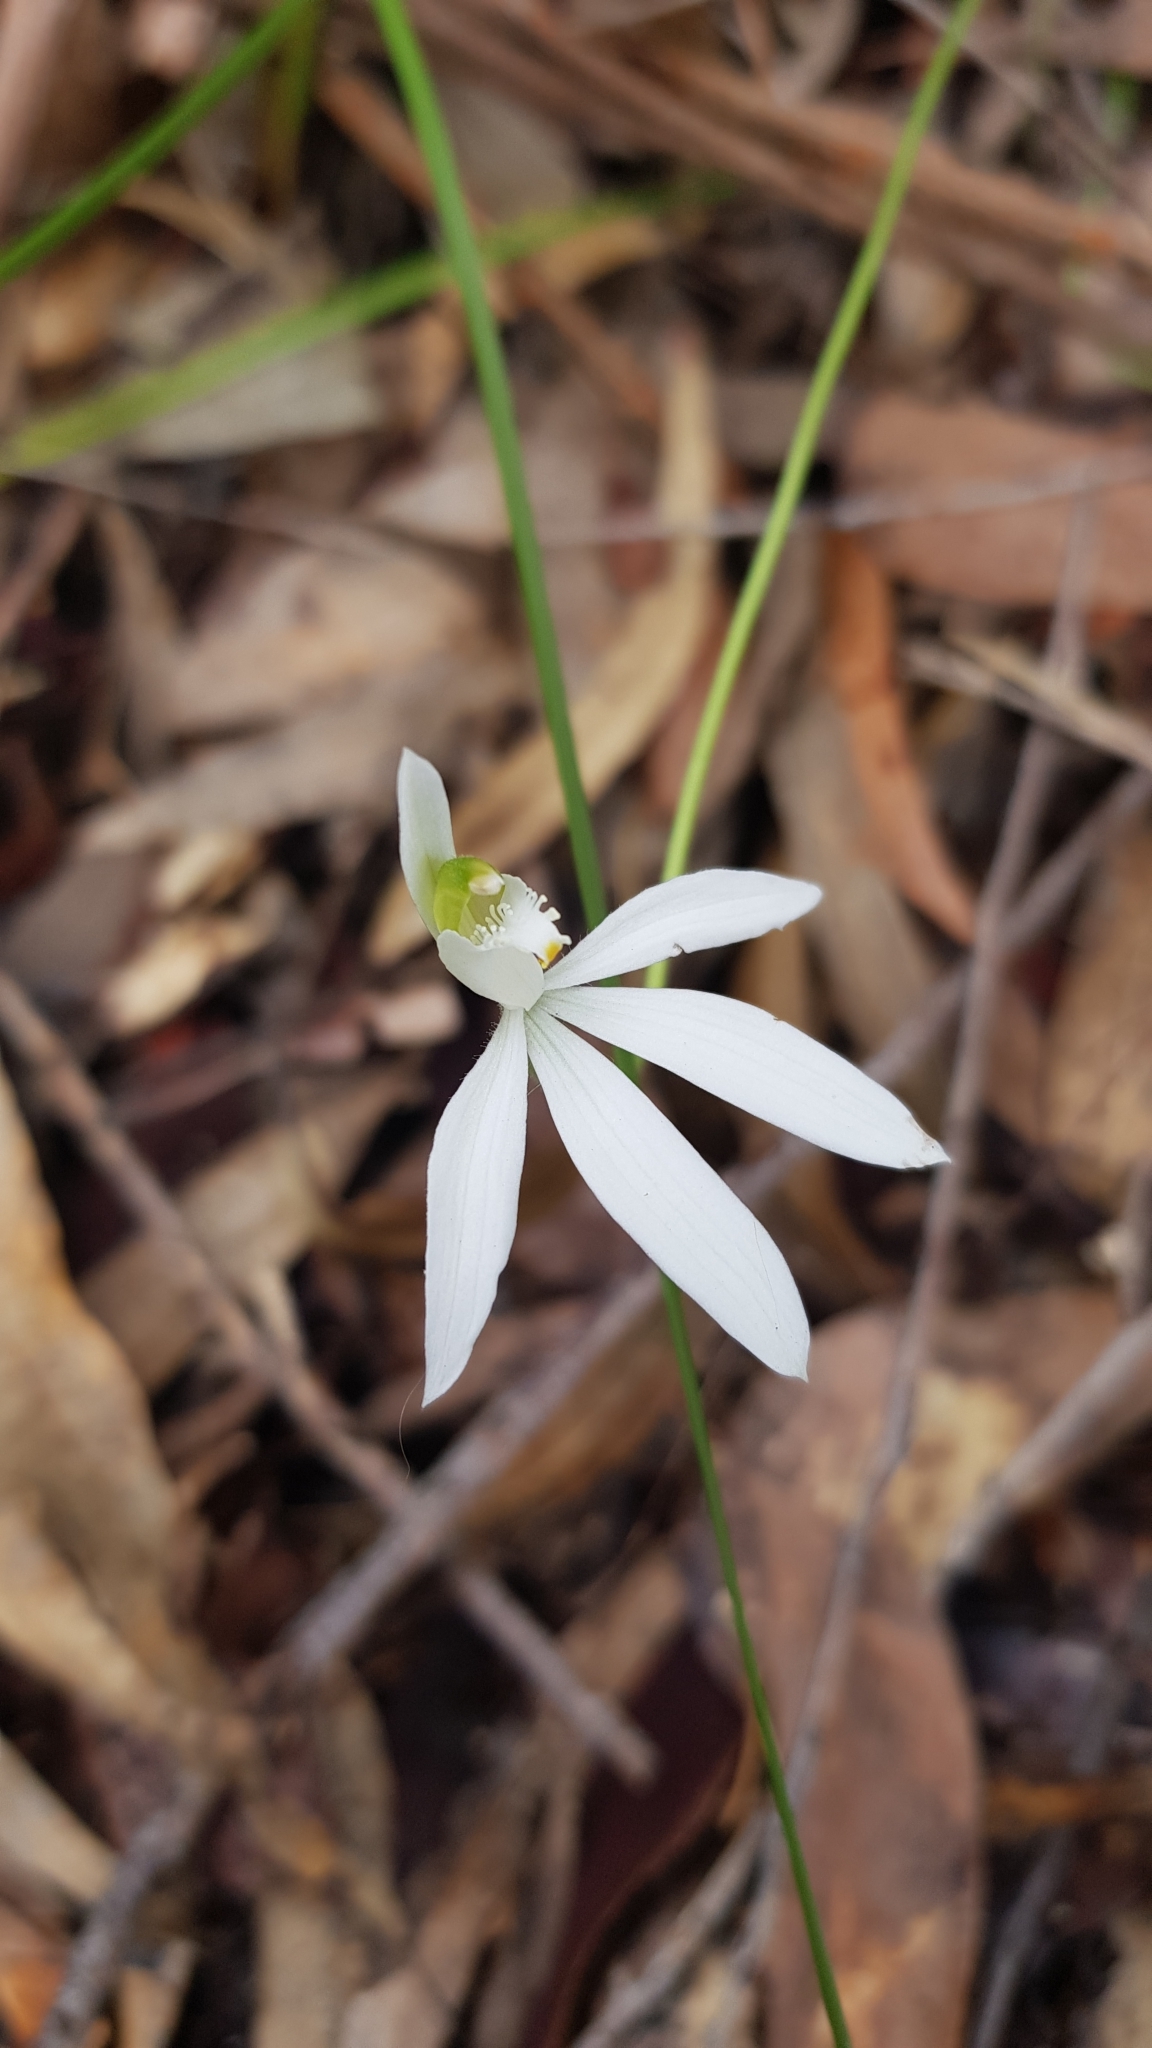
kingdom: Plantae
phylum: Tracheophyta
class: Liliopsida
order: Asparagales
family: Orchidaceae
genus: Caladenia
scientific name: Caladenia catenata
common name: White caladenia
